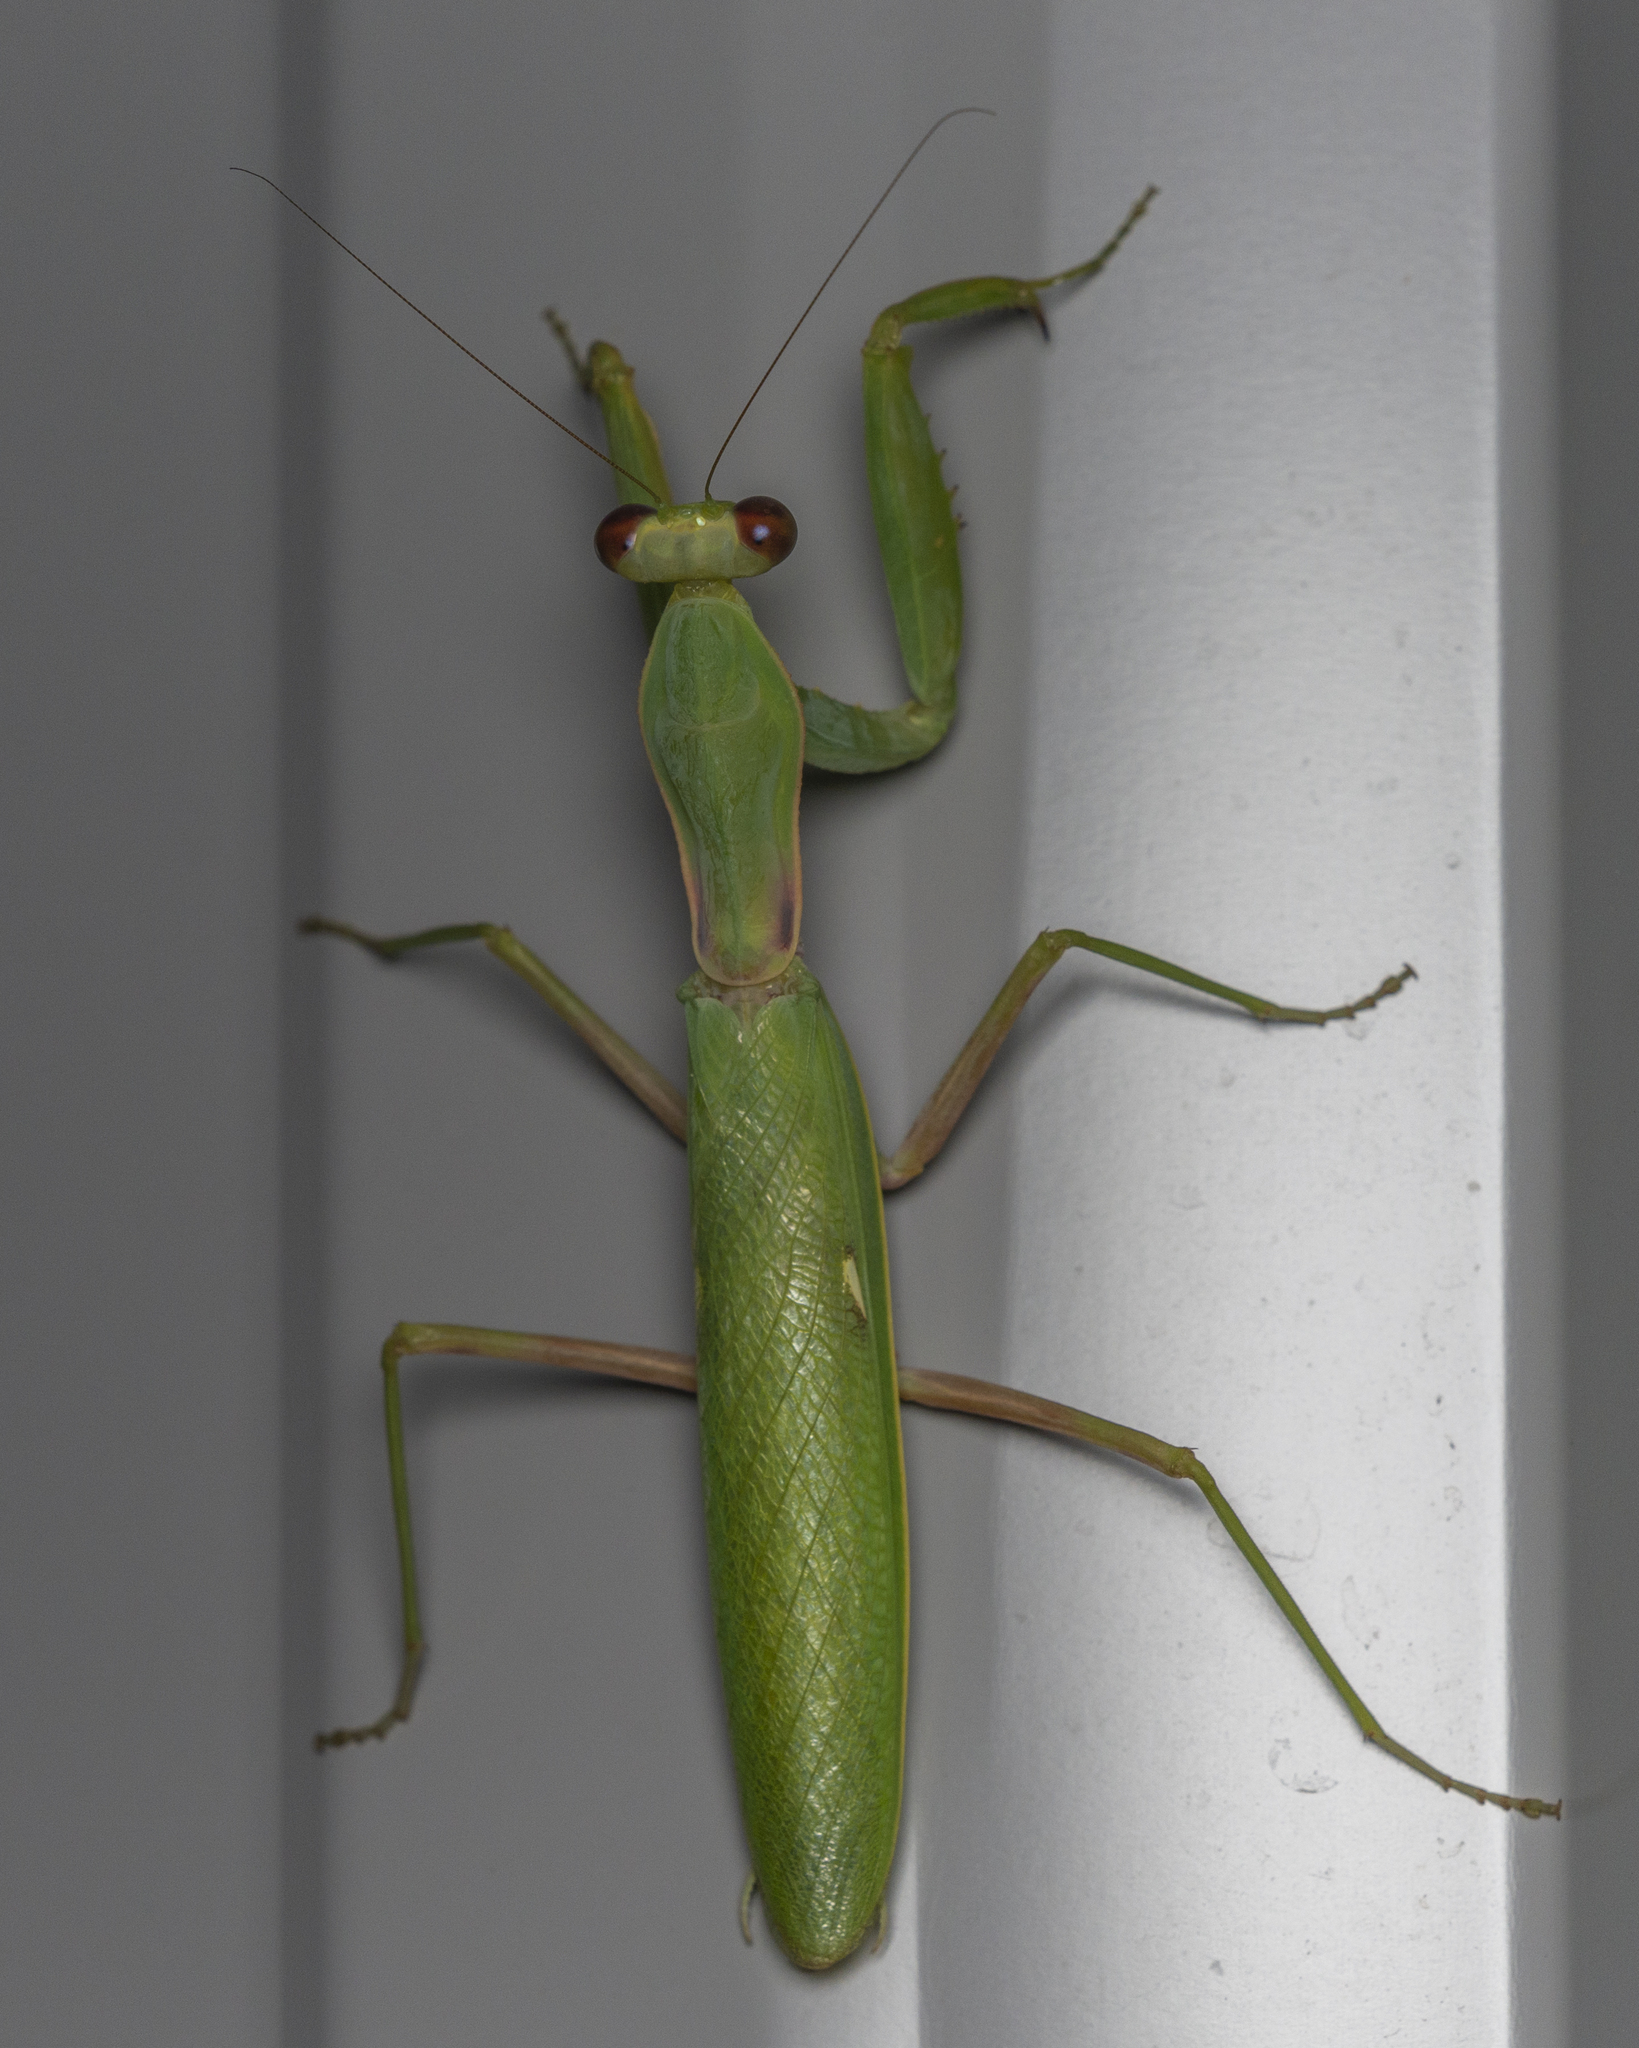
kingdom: Animalia
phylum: Arthropoda
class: Insecta
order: Mantodea
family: Mantidae
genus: Hierodula
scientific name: Hierodula patellifera
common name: Asian mantis
